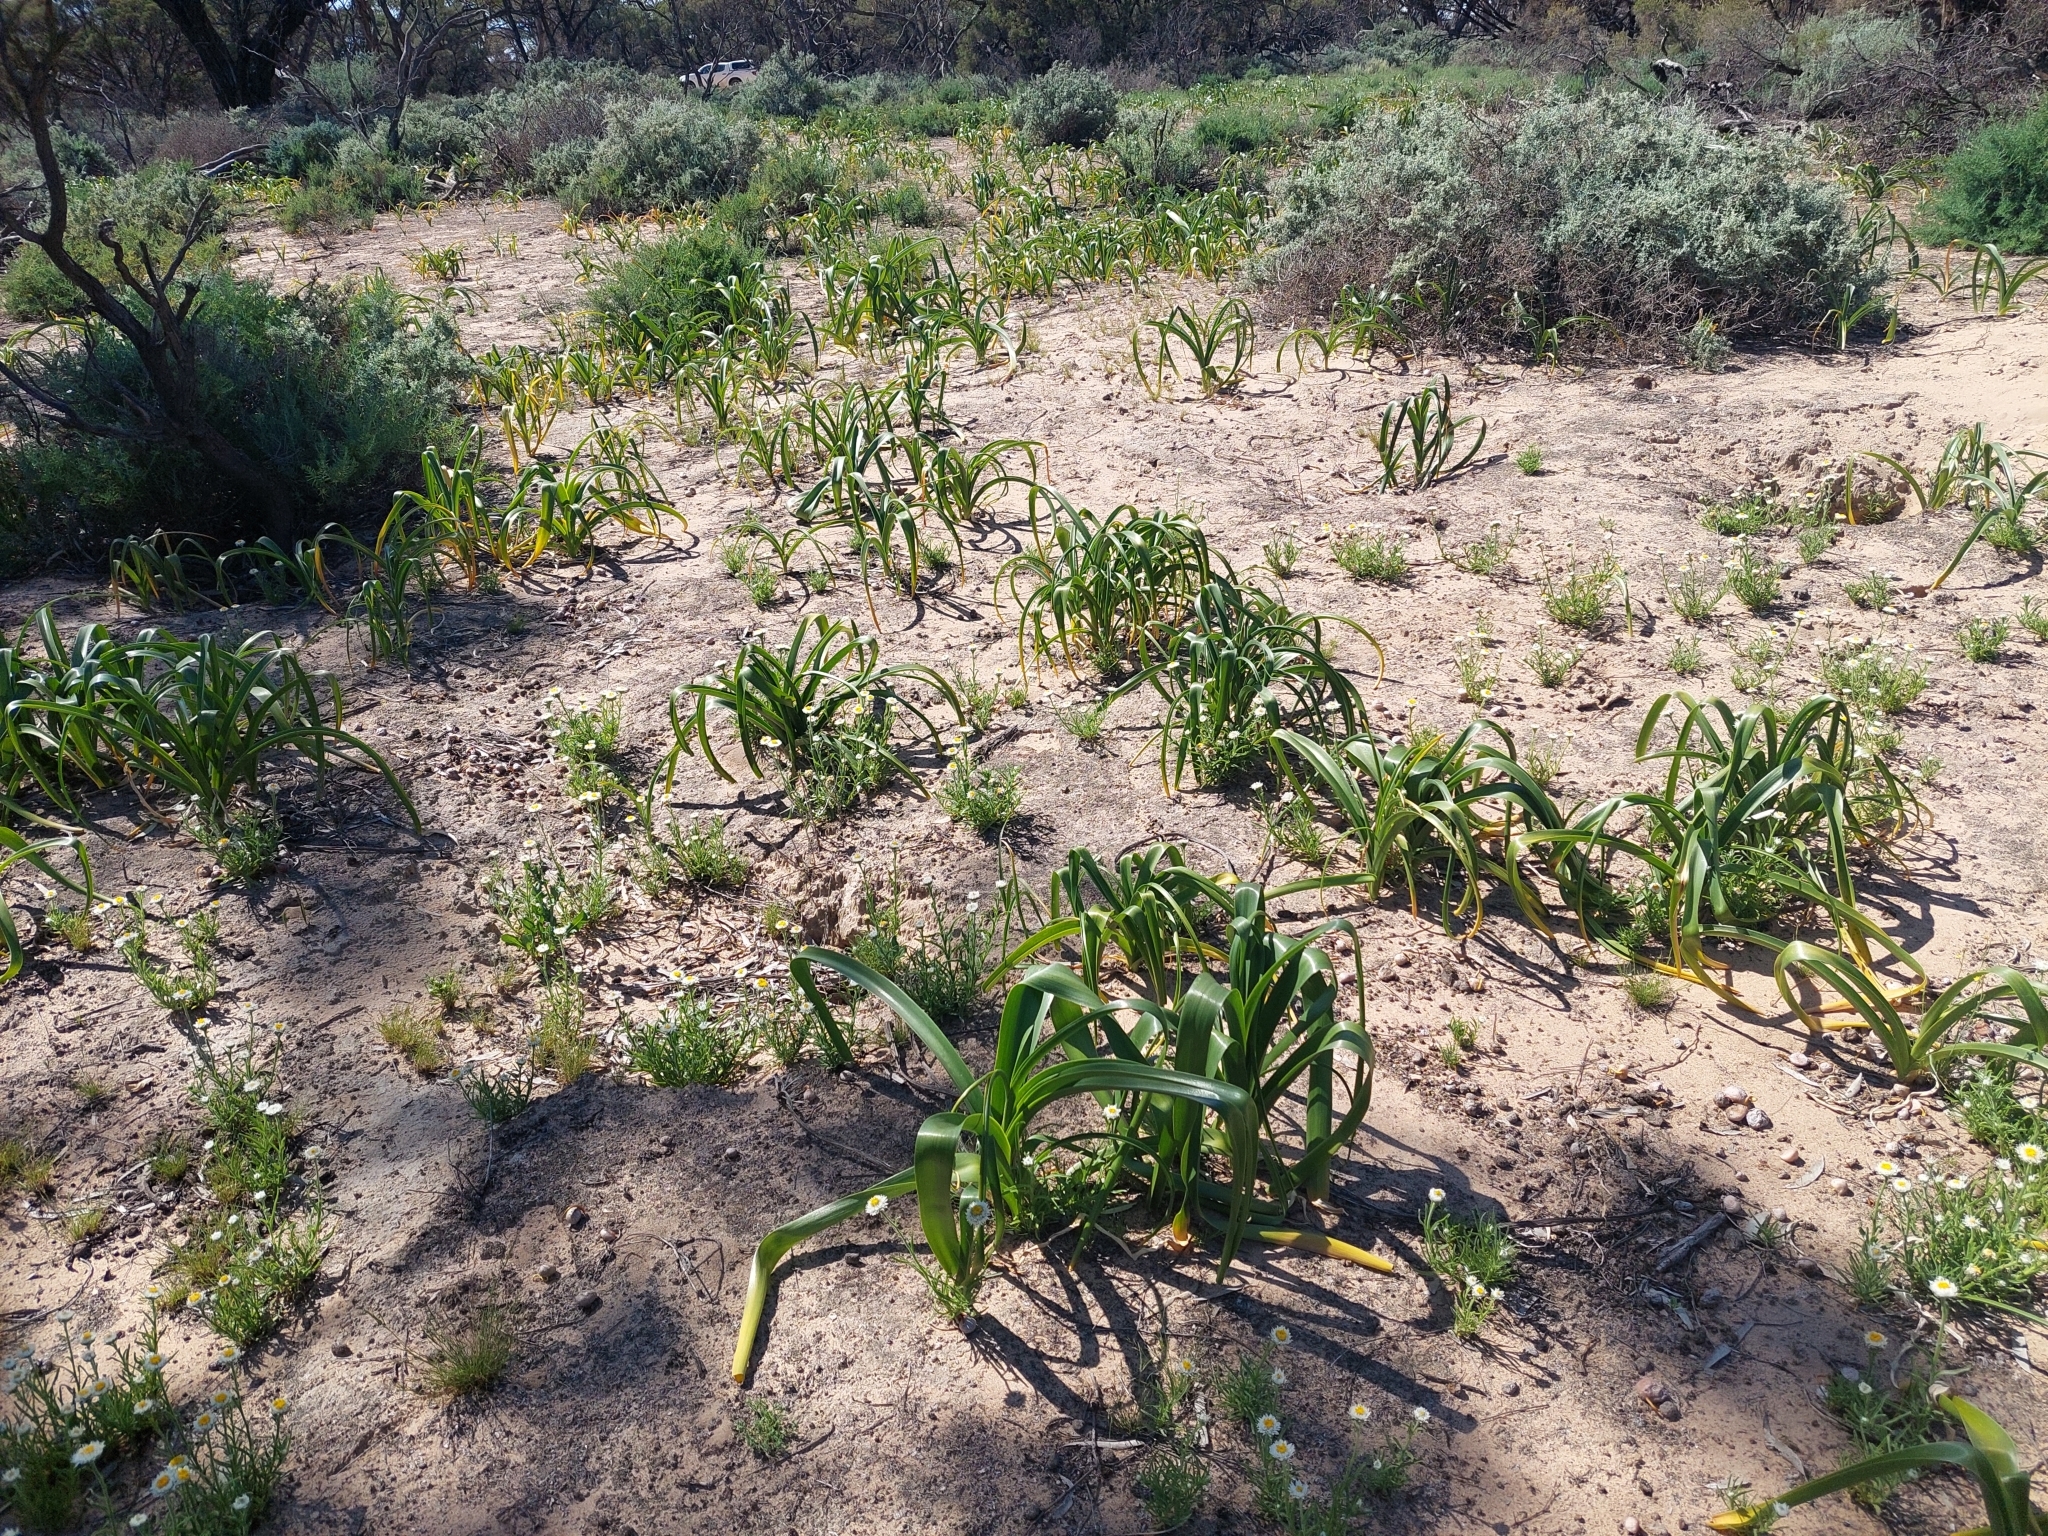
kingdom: Plantae
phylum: Tracheophyta
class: Liliopsida
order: Asparagales
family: Amaryllidaceae
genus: Crinum
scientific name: Crinum flaccidum
